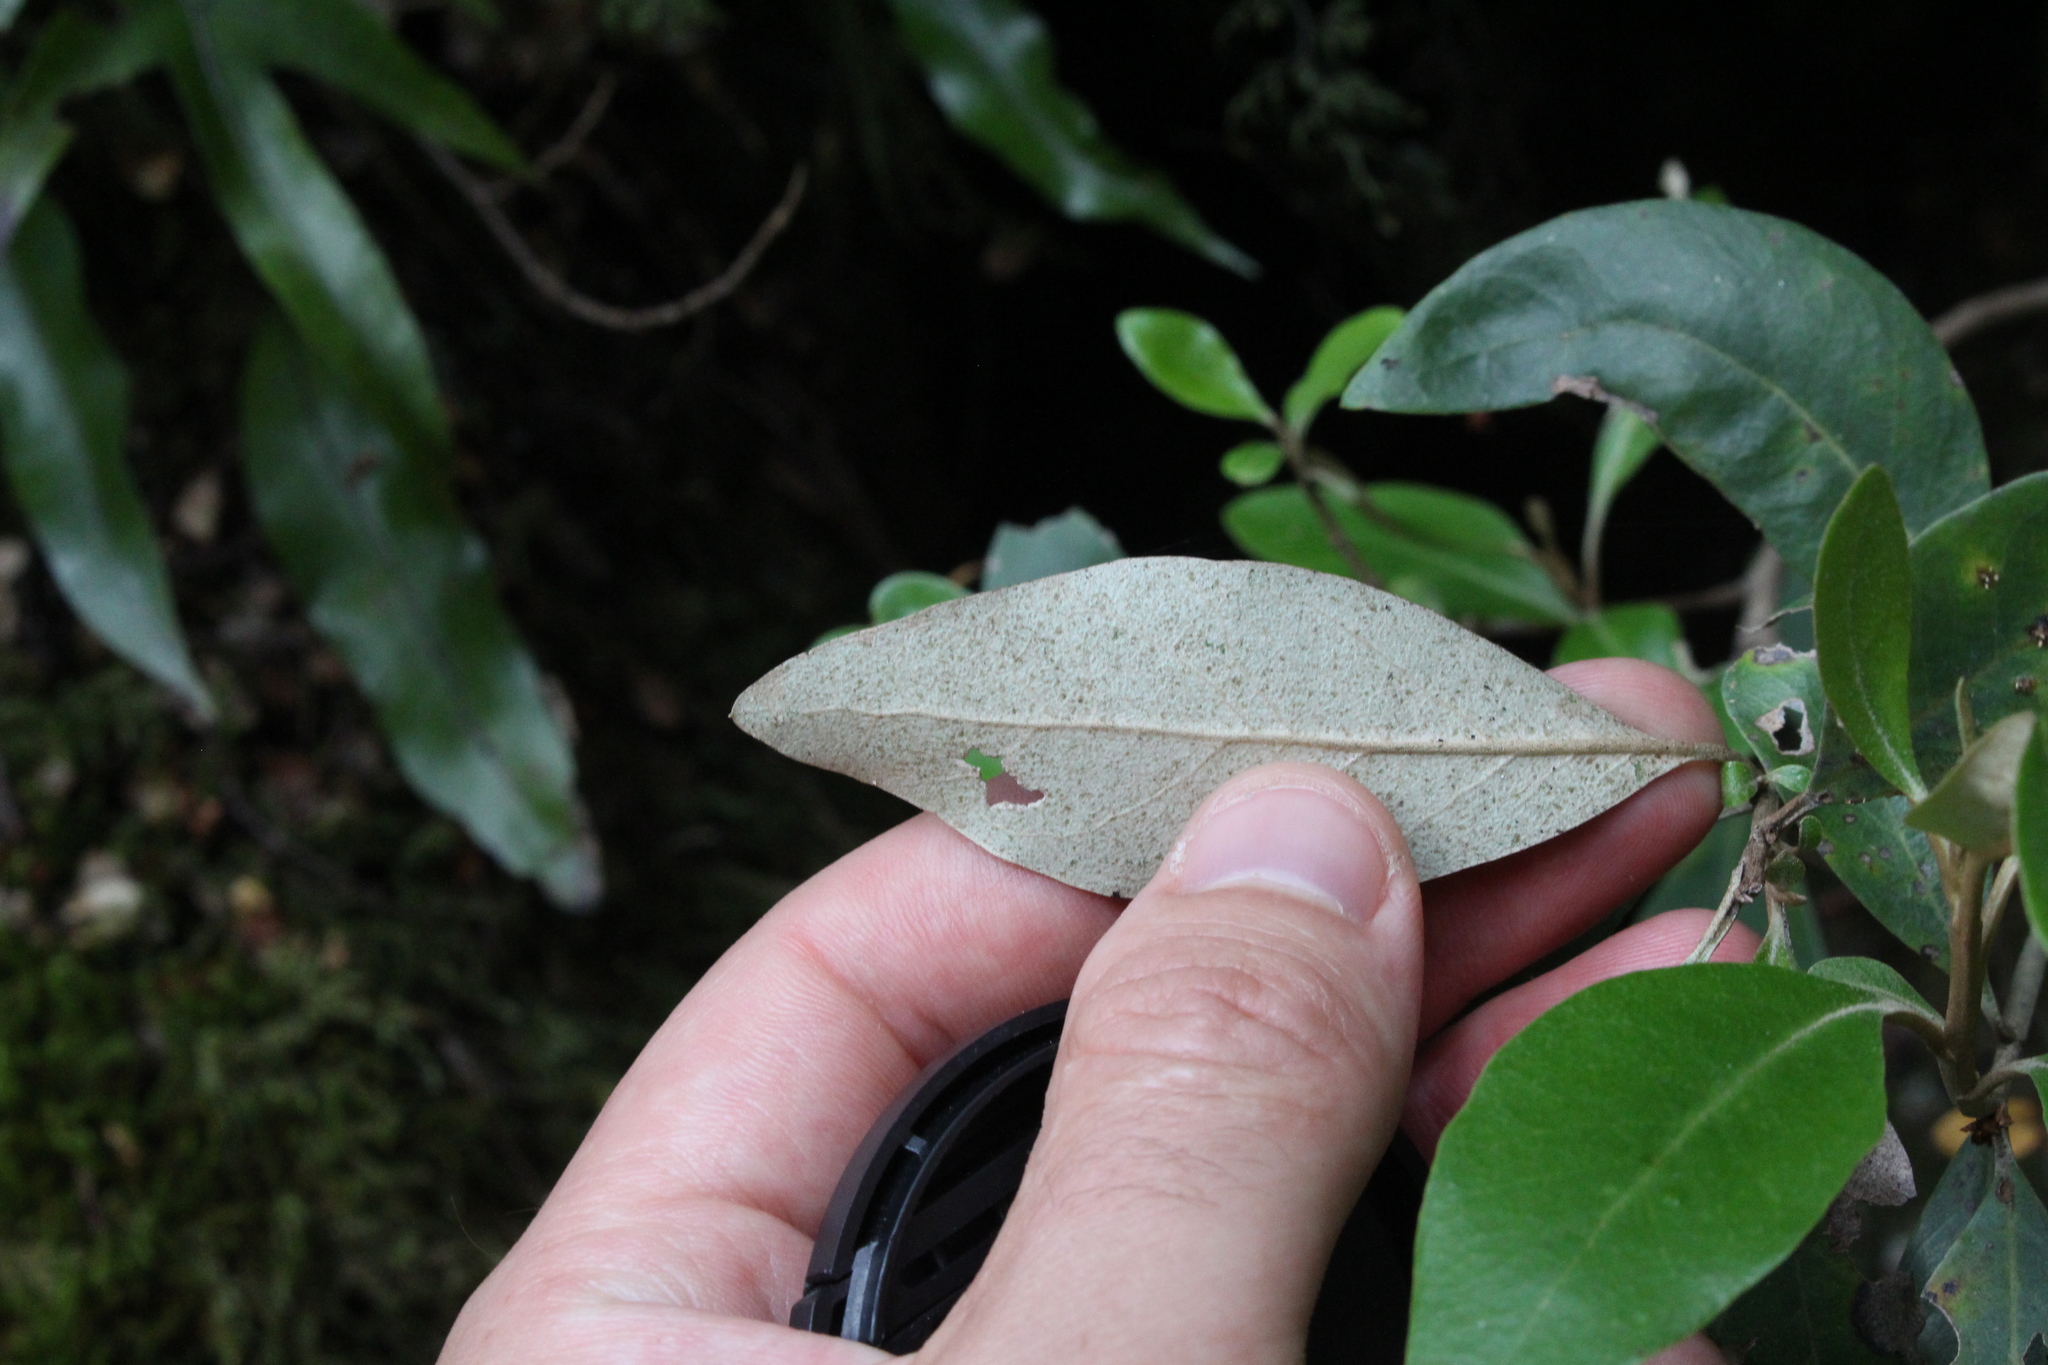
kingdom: Plantae
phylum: Tracheophyta
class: Magnoliopsida
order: Asterales
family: Asteraceae
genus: Olearia
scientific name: Olearia avicenniifolia
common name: Mangrove-leaf daisybush
